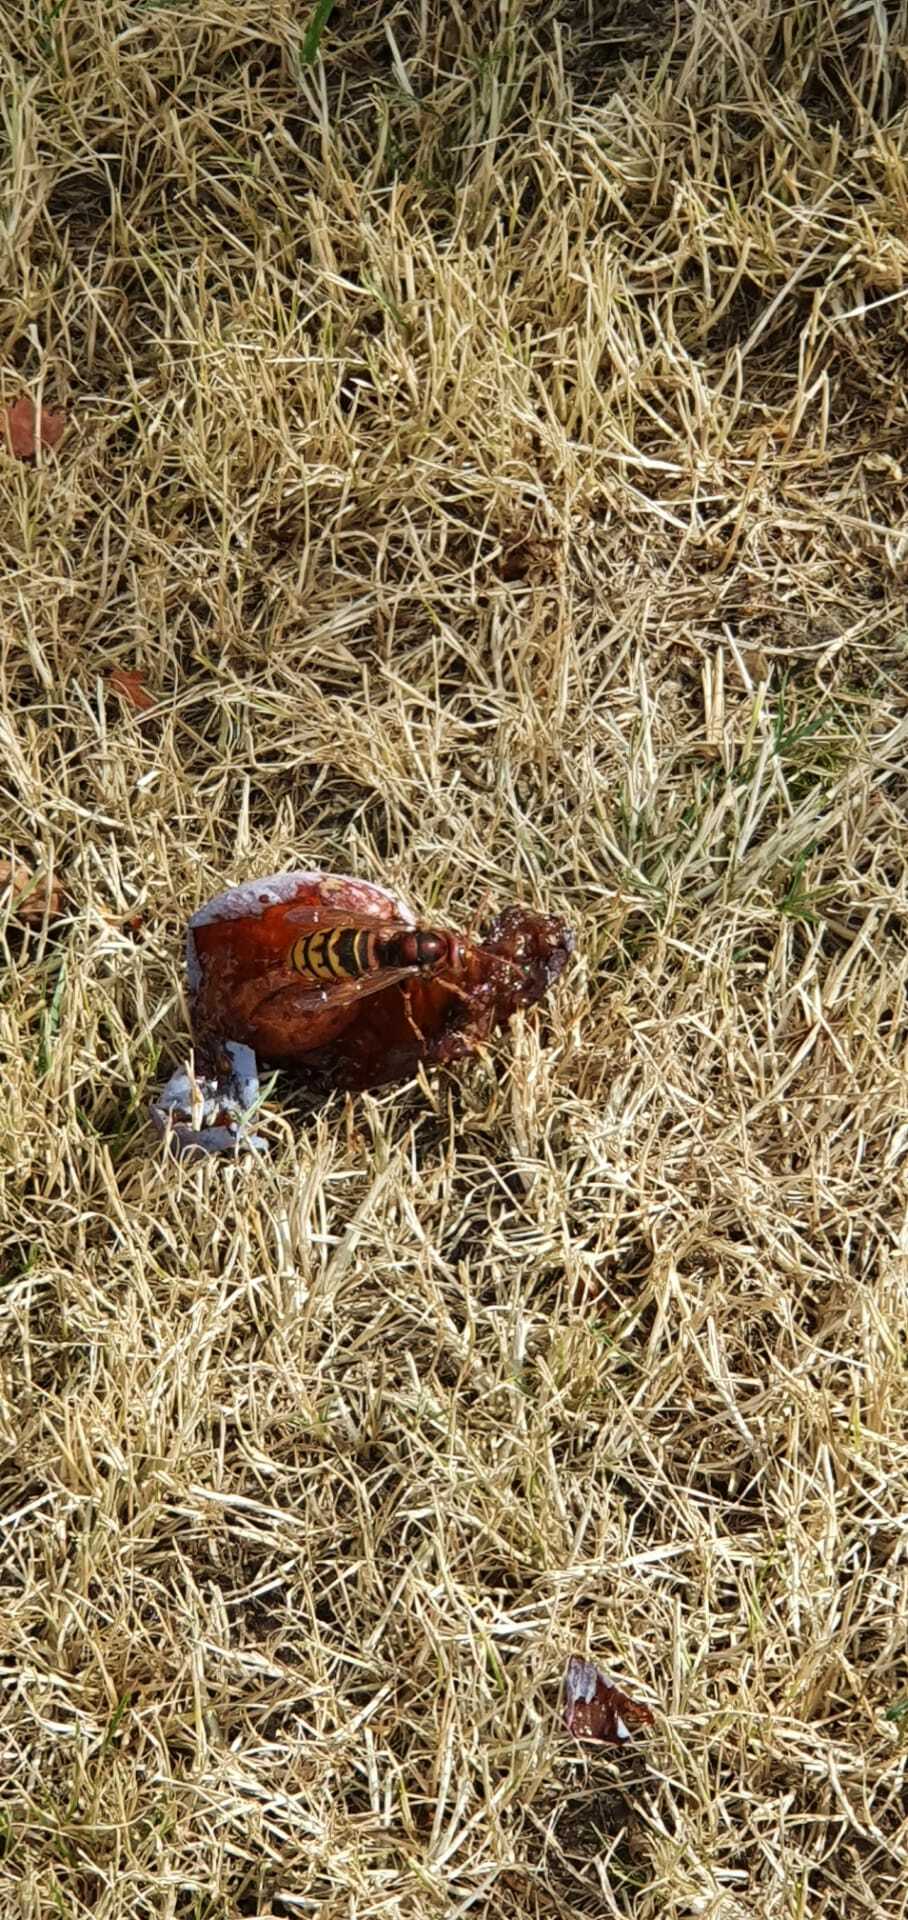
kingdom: Animalia
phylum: Arthropoda
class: Insecta
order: Hymenoptera
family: Vespidae
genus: Vespa
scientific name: Vespa crabro
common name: Hornet
